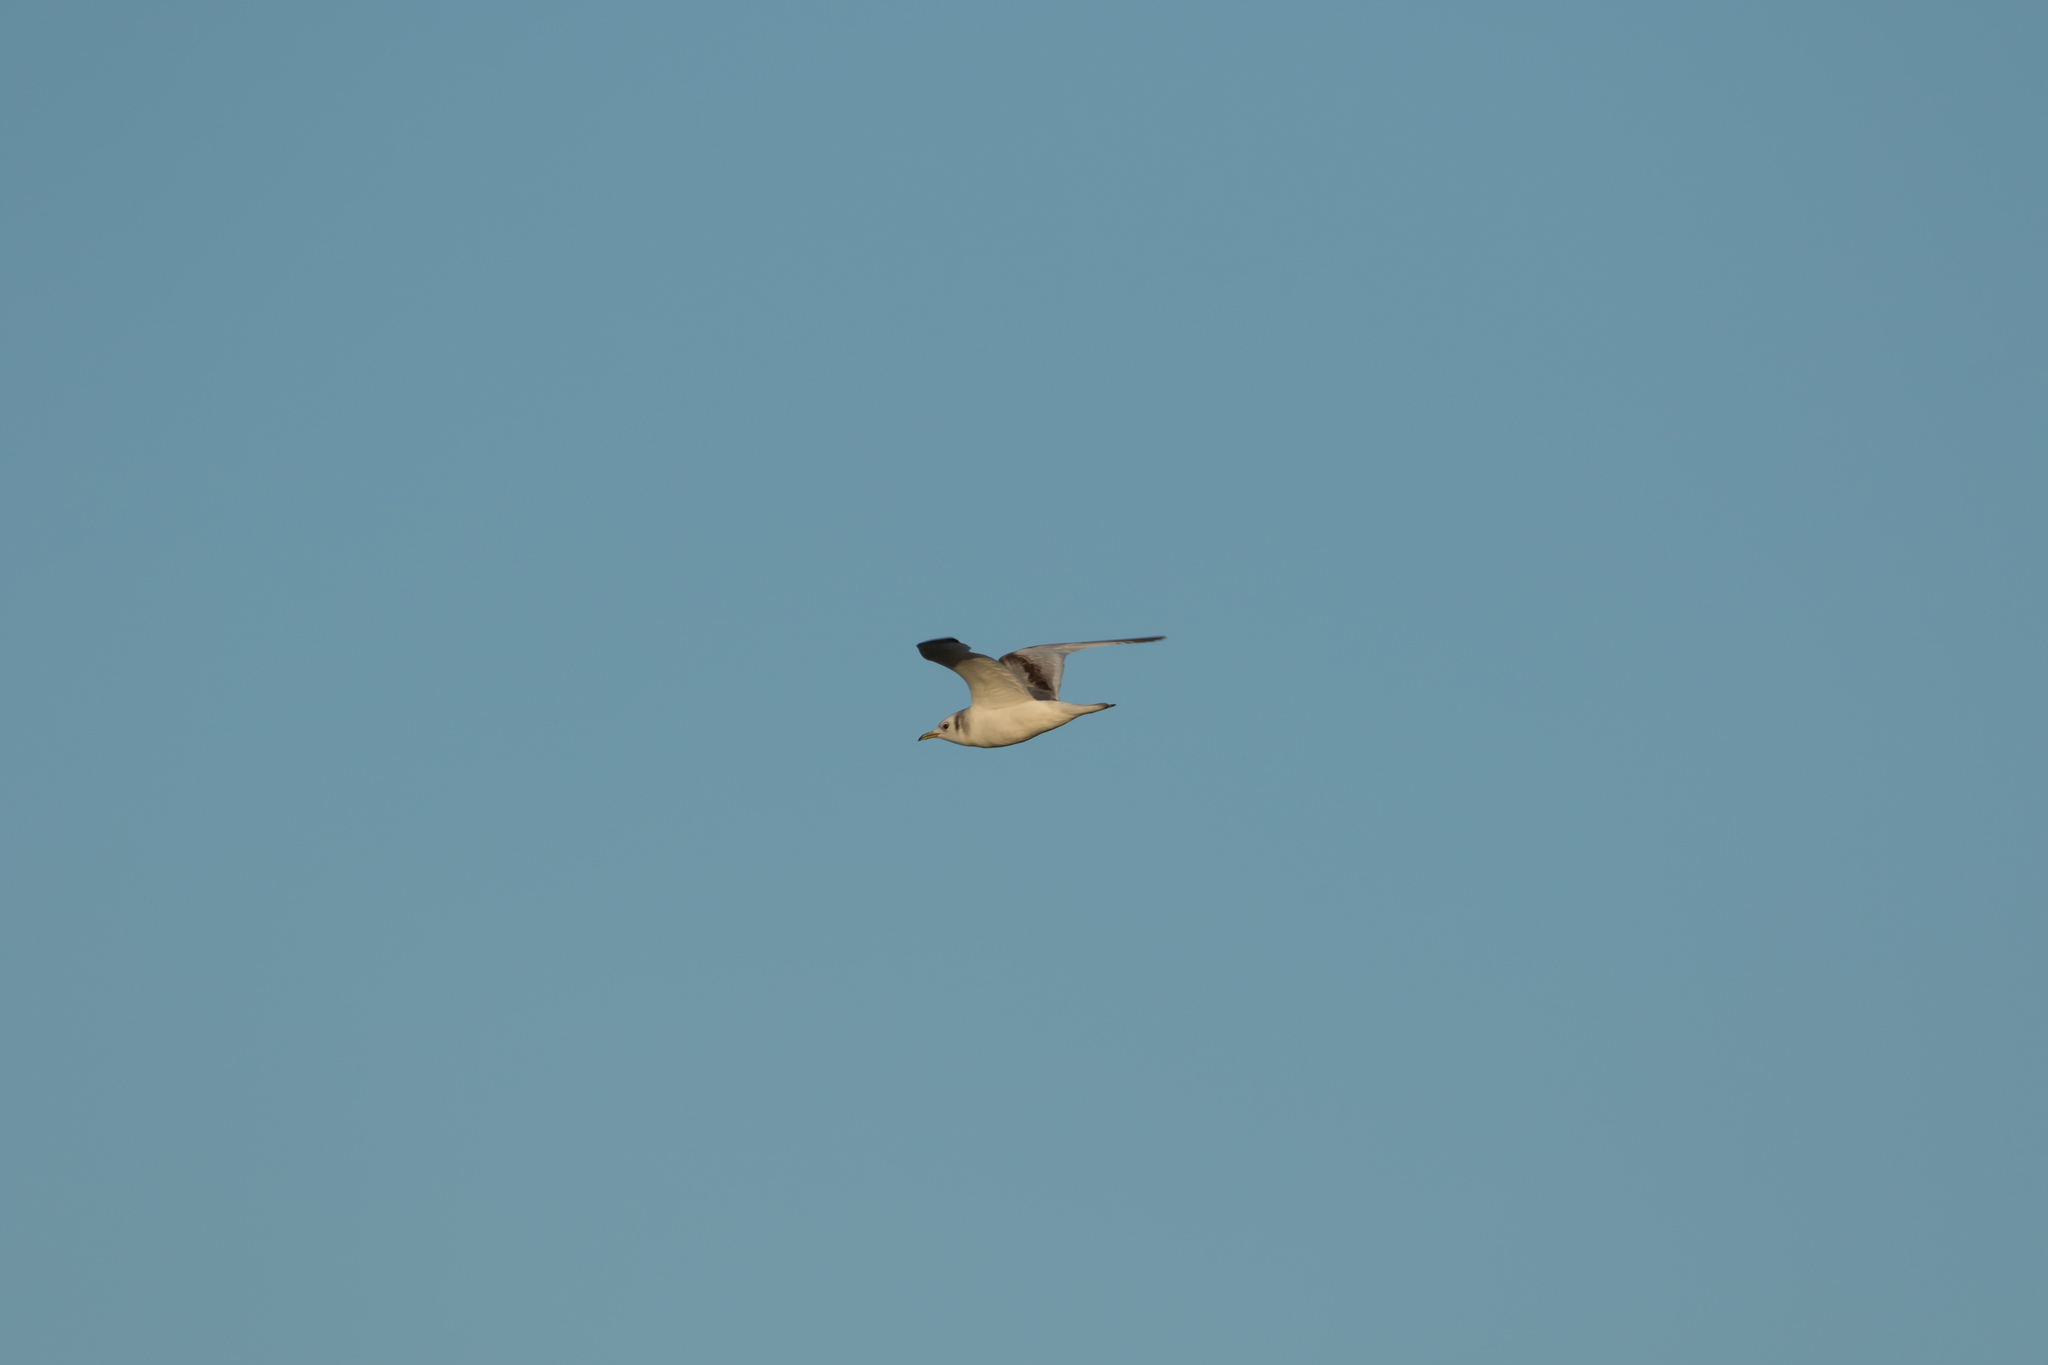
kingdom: Animalia
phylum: Chordata
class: Aves
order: Charadriiformes
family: Laridae
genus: Rissa
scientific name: Rissa tridactyla
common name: Black-legged kittiwake
